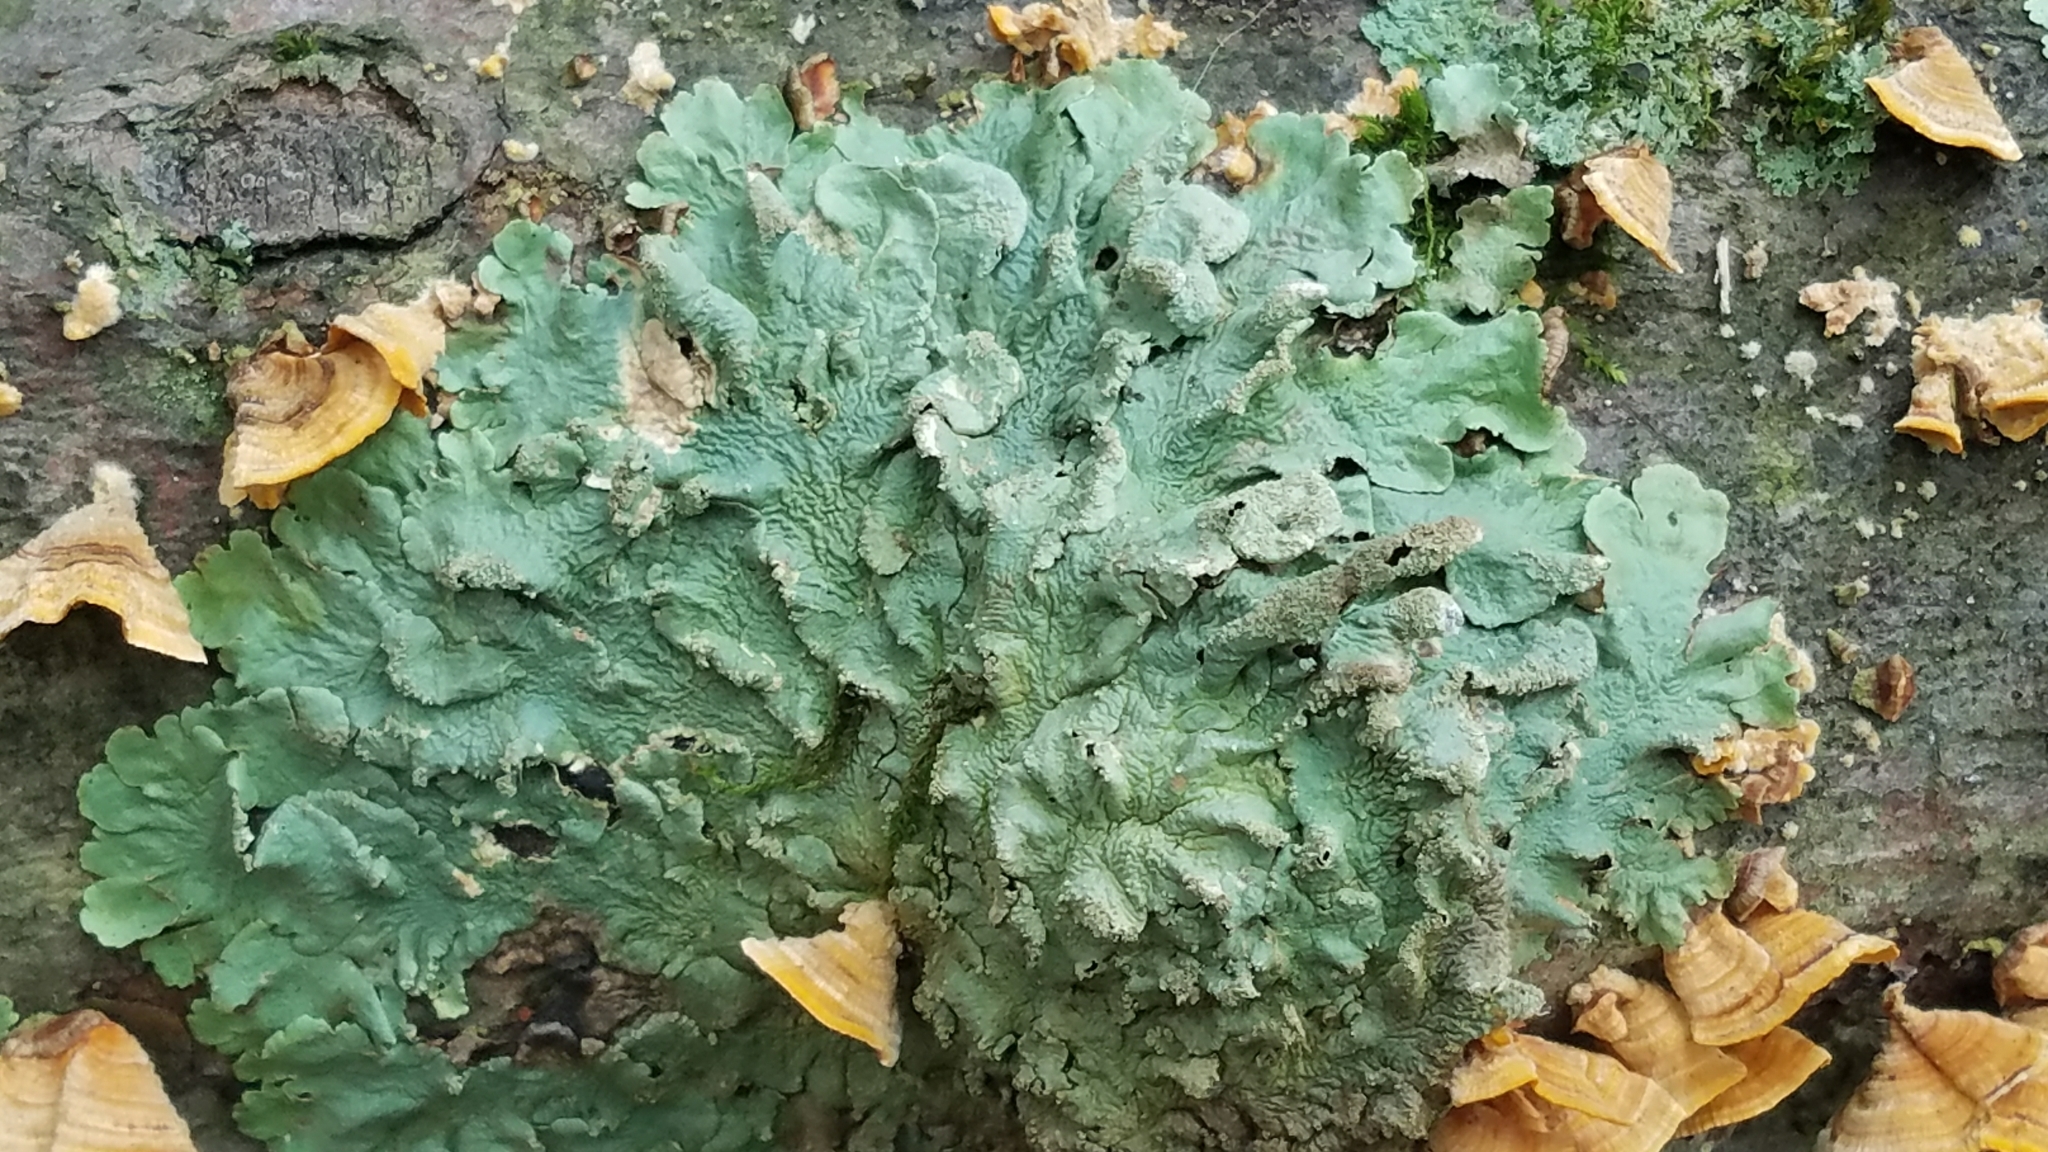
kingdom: Fungi
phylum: Ascomycota
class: Lecanoromycetes
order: Lecanorales
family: Parmeliaceae
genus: Flavoparmelia
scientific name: Flavoparmelia caperata
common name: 40-mile per hour lichen
